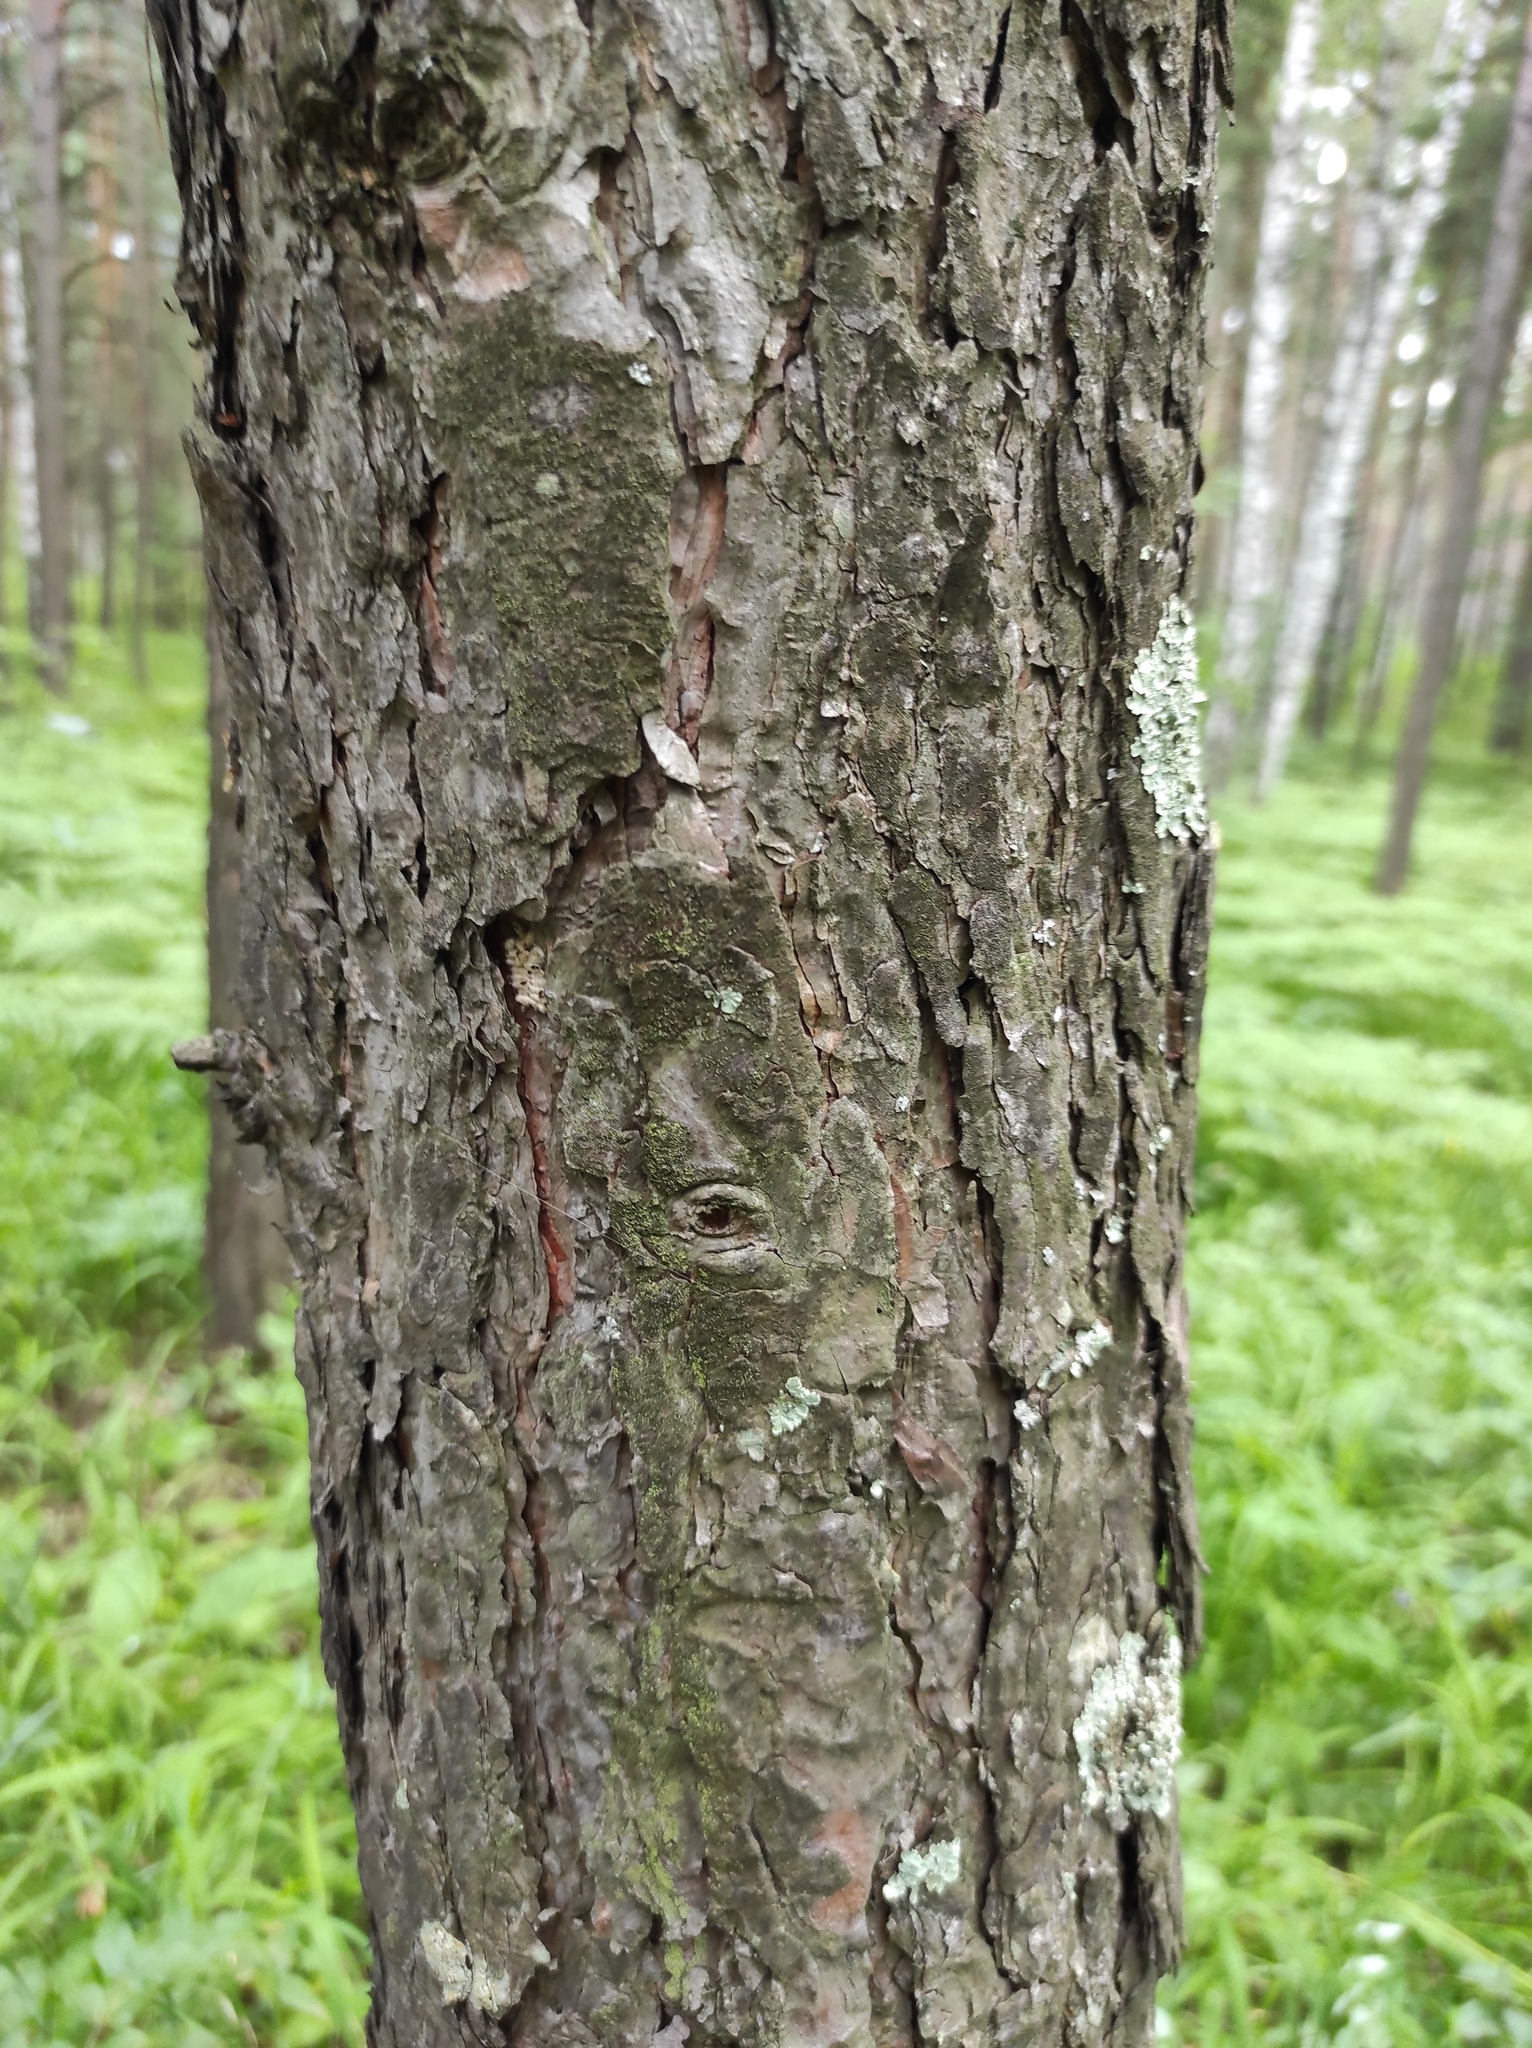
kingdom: Plantae
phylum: Tracheophyta
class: Pinopsida
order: Pinales
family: Pinaceae
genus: Pinus
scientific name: Pinus sylvestris
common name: Scots pine
